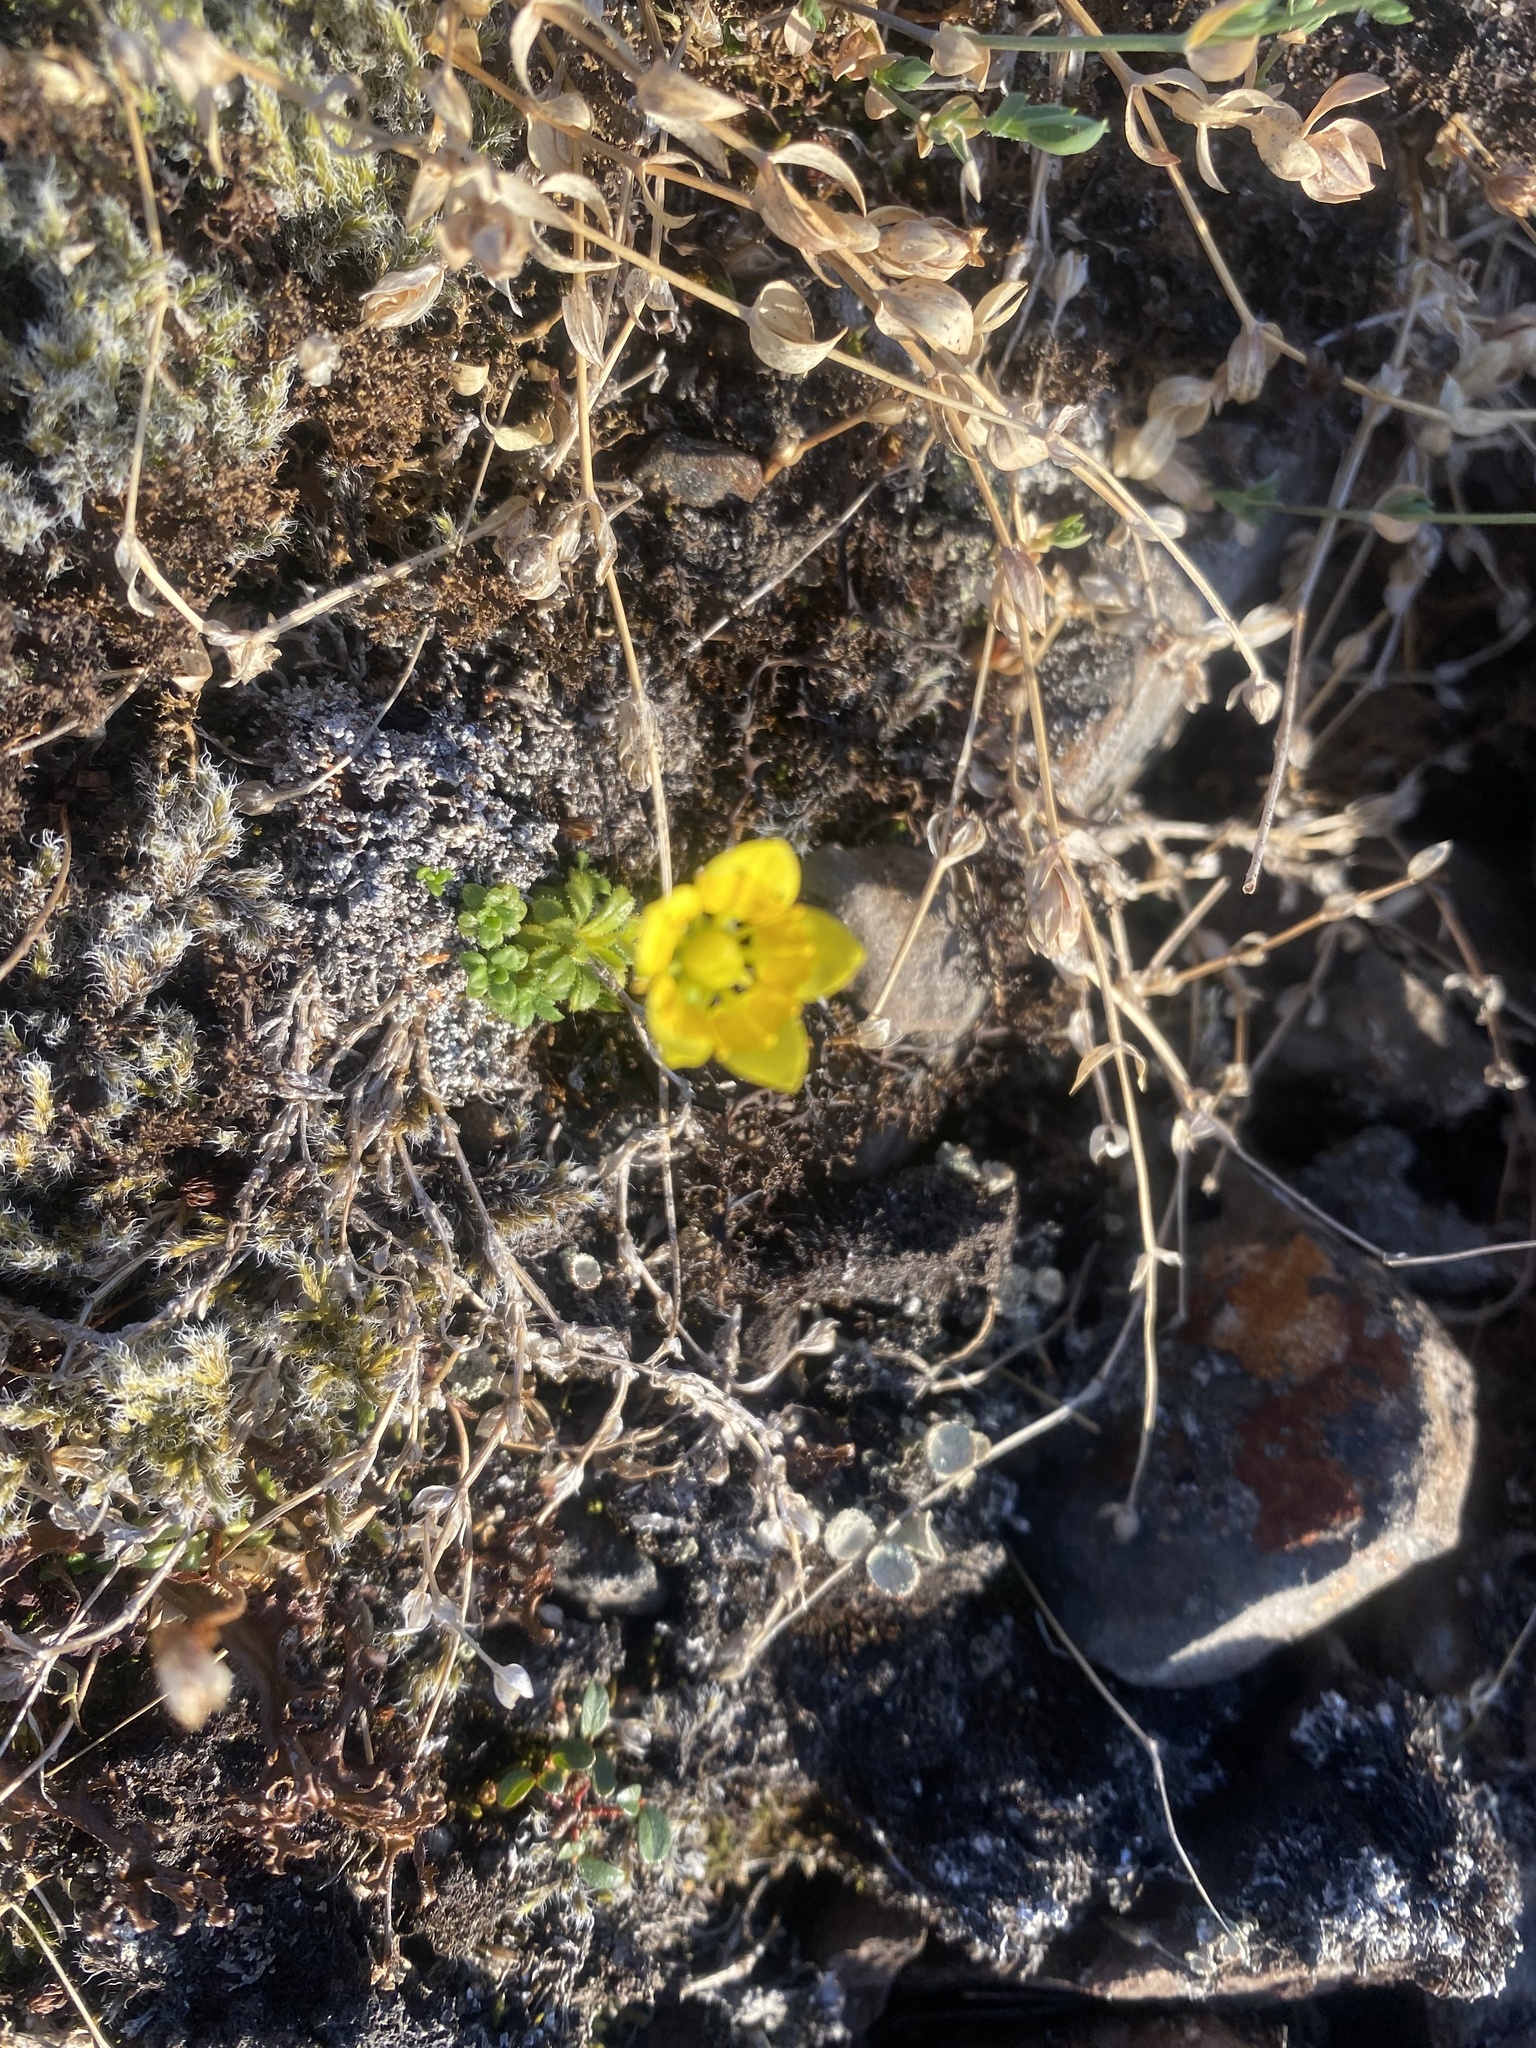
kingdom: Plantae
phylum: Tracheophyta
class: Magnoliopsida
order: Saxifragales
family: Saxifragaceae
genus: Saxifraga
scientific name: Saxifraga serpyllifolia
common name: Thyme-leaved saxifrage
